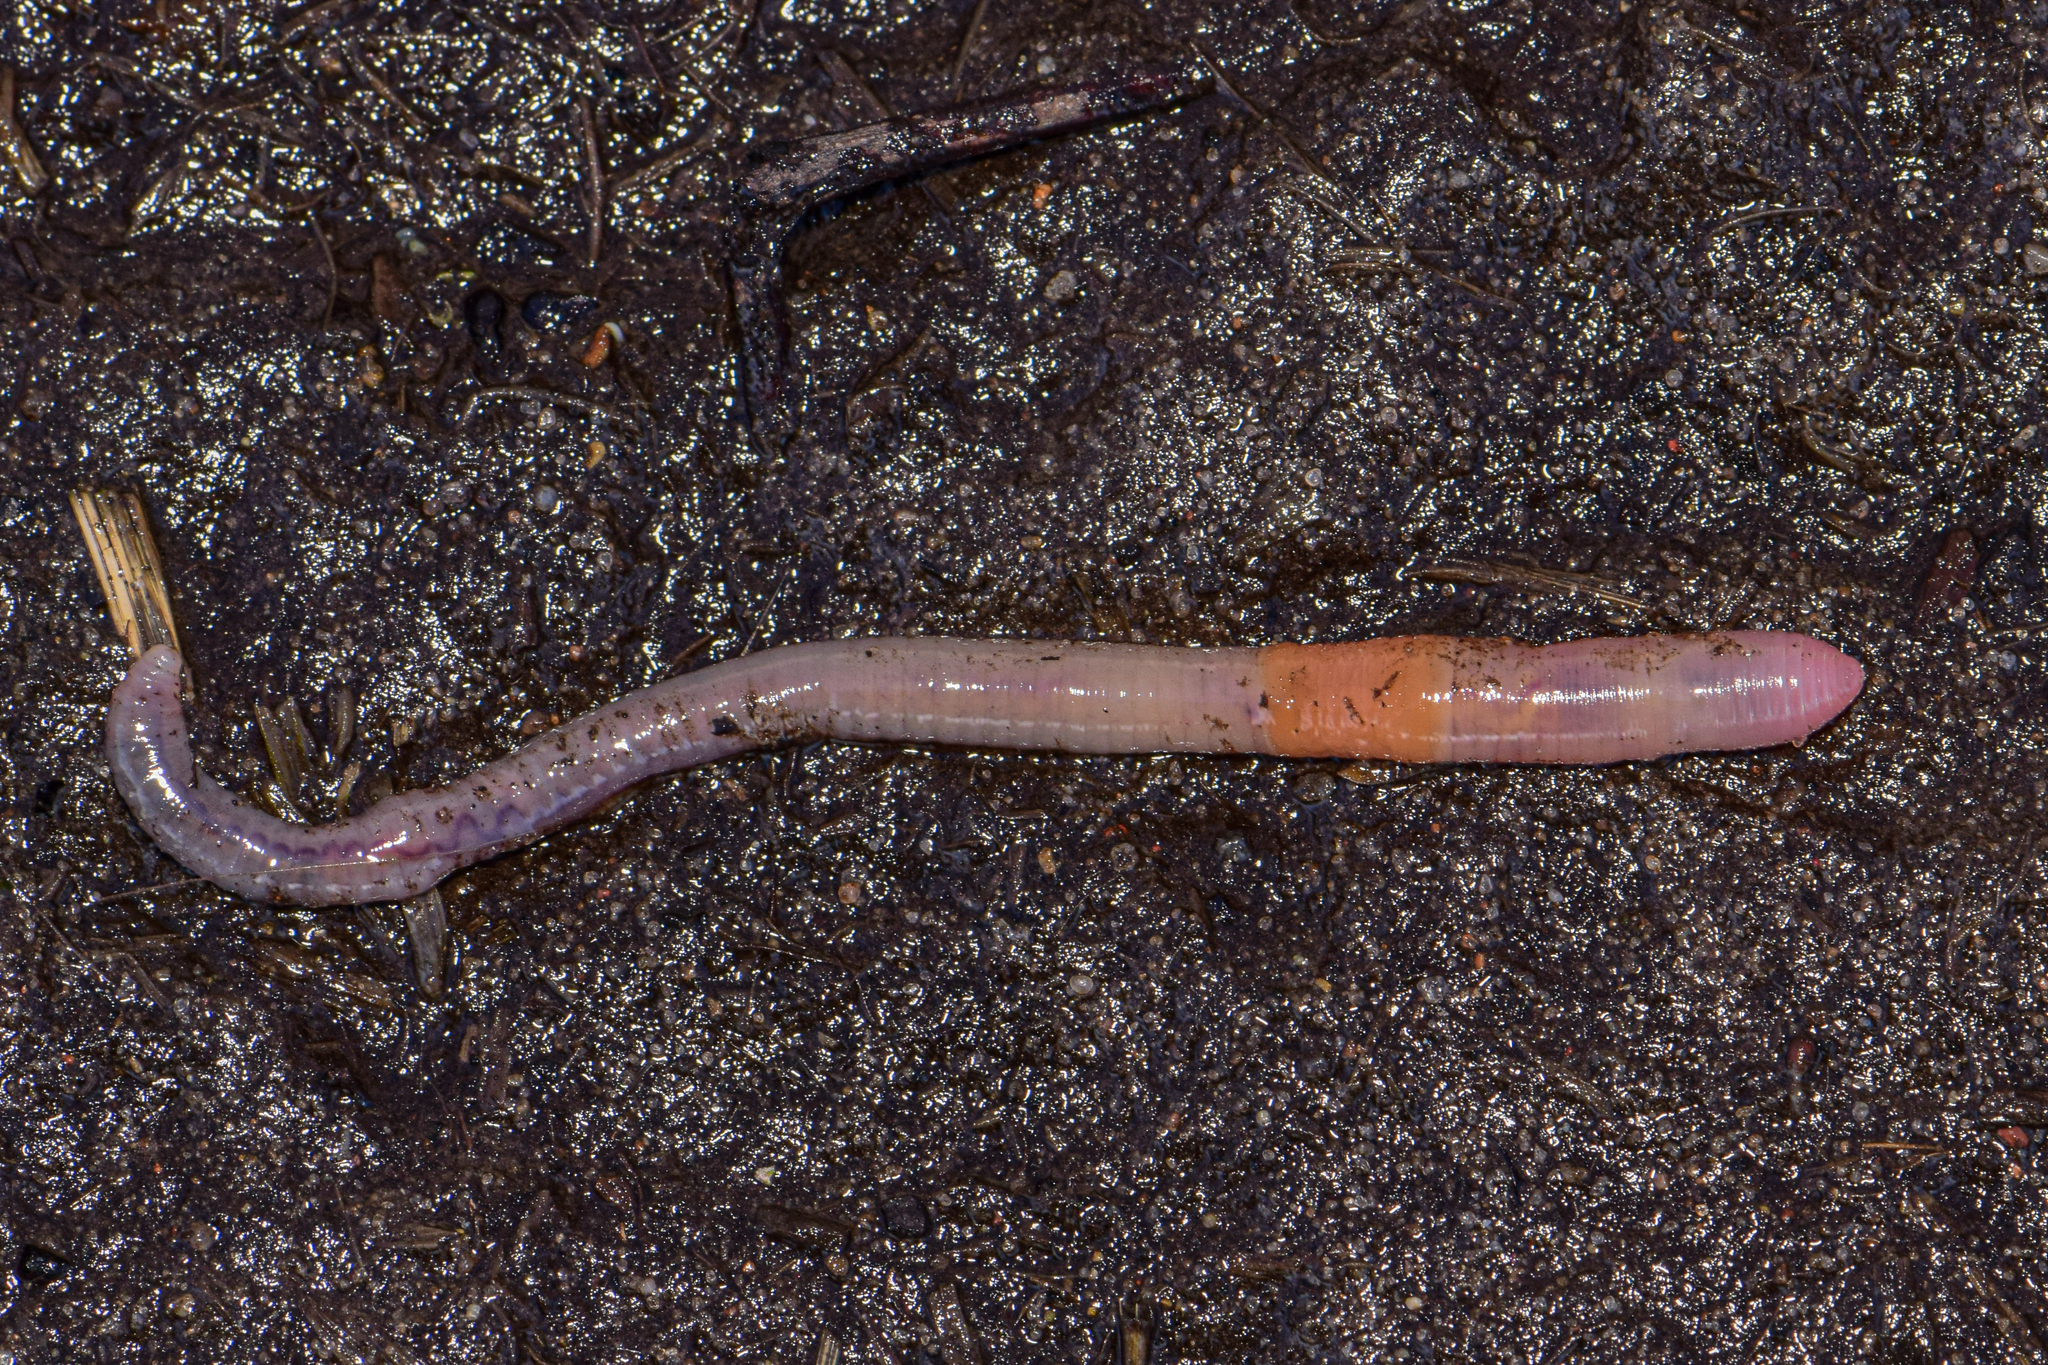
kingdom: Animalia
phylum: Annelida
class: Clitellata
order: Crassiclitellata
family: Lumbricidae
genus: Aporrectodea
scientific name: Aporrectodea rosea
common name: Pink soilworm
